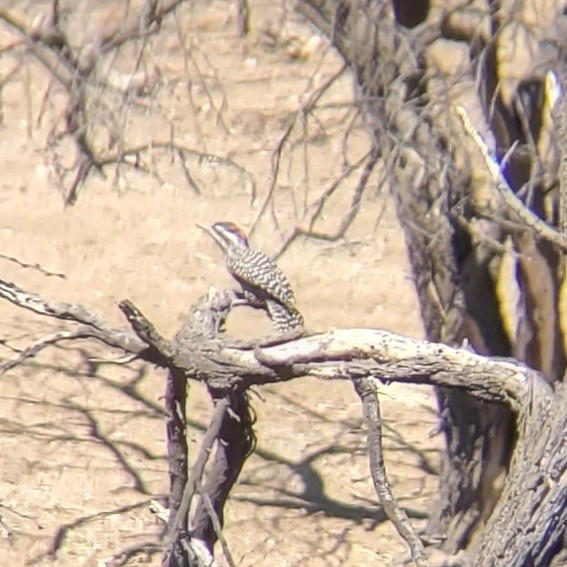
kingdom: Animalia
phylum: Chordata
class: Aves
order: Piciformes
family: Picidae
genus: Veniliornis
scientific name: Veniliornis lignarius
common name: Striped woodpecker
